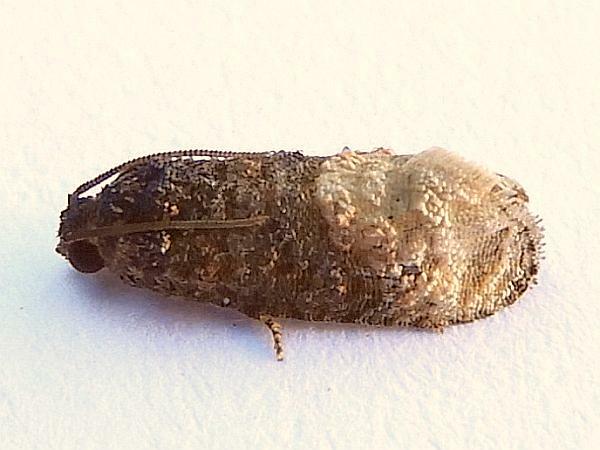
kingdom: Animalia
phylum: Arthropoda
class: Insecta
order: Lepidoptera
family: Tortricidae
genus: Ecdytolopha
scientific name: Ecdytolopha mana
